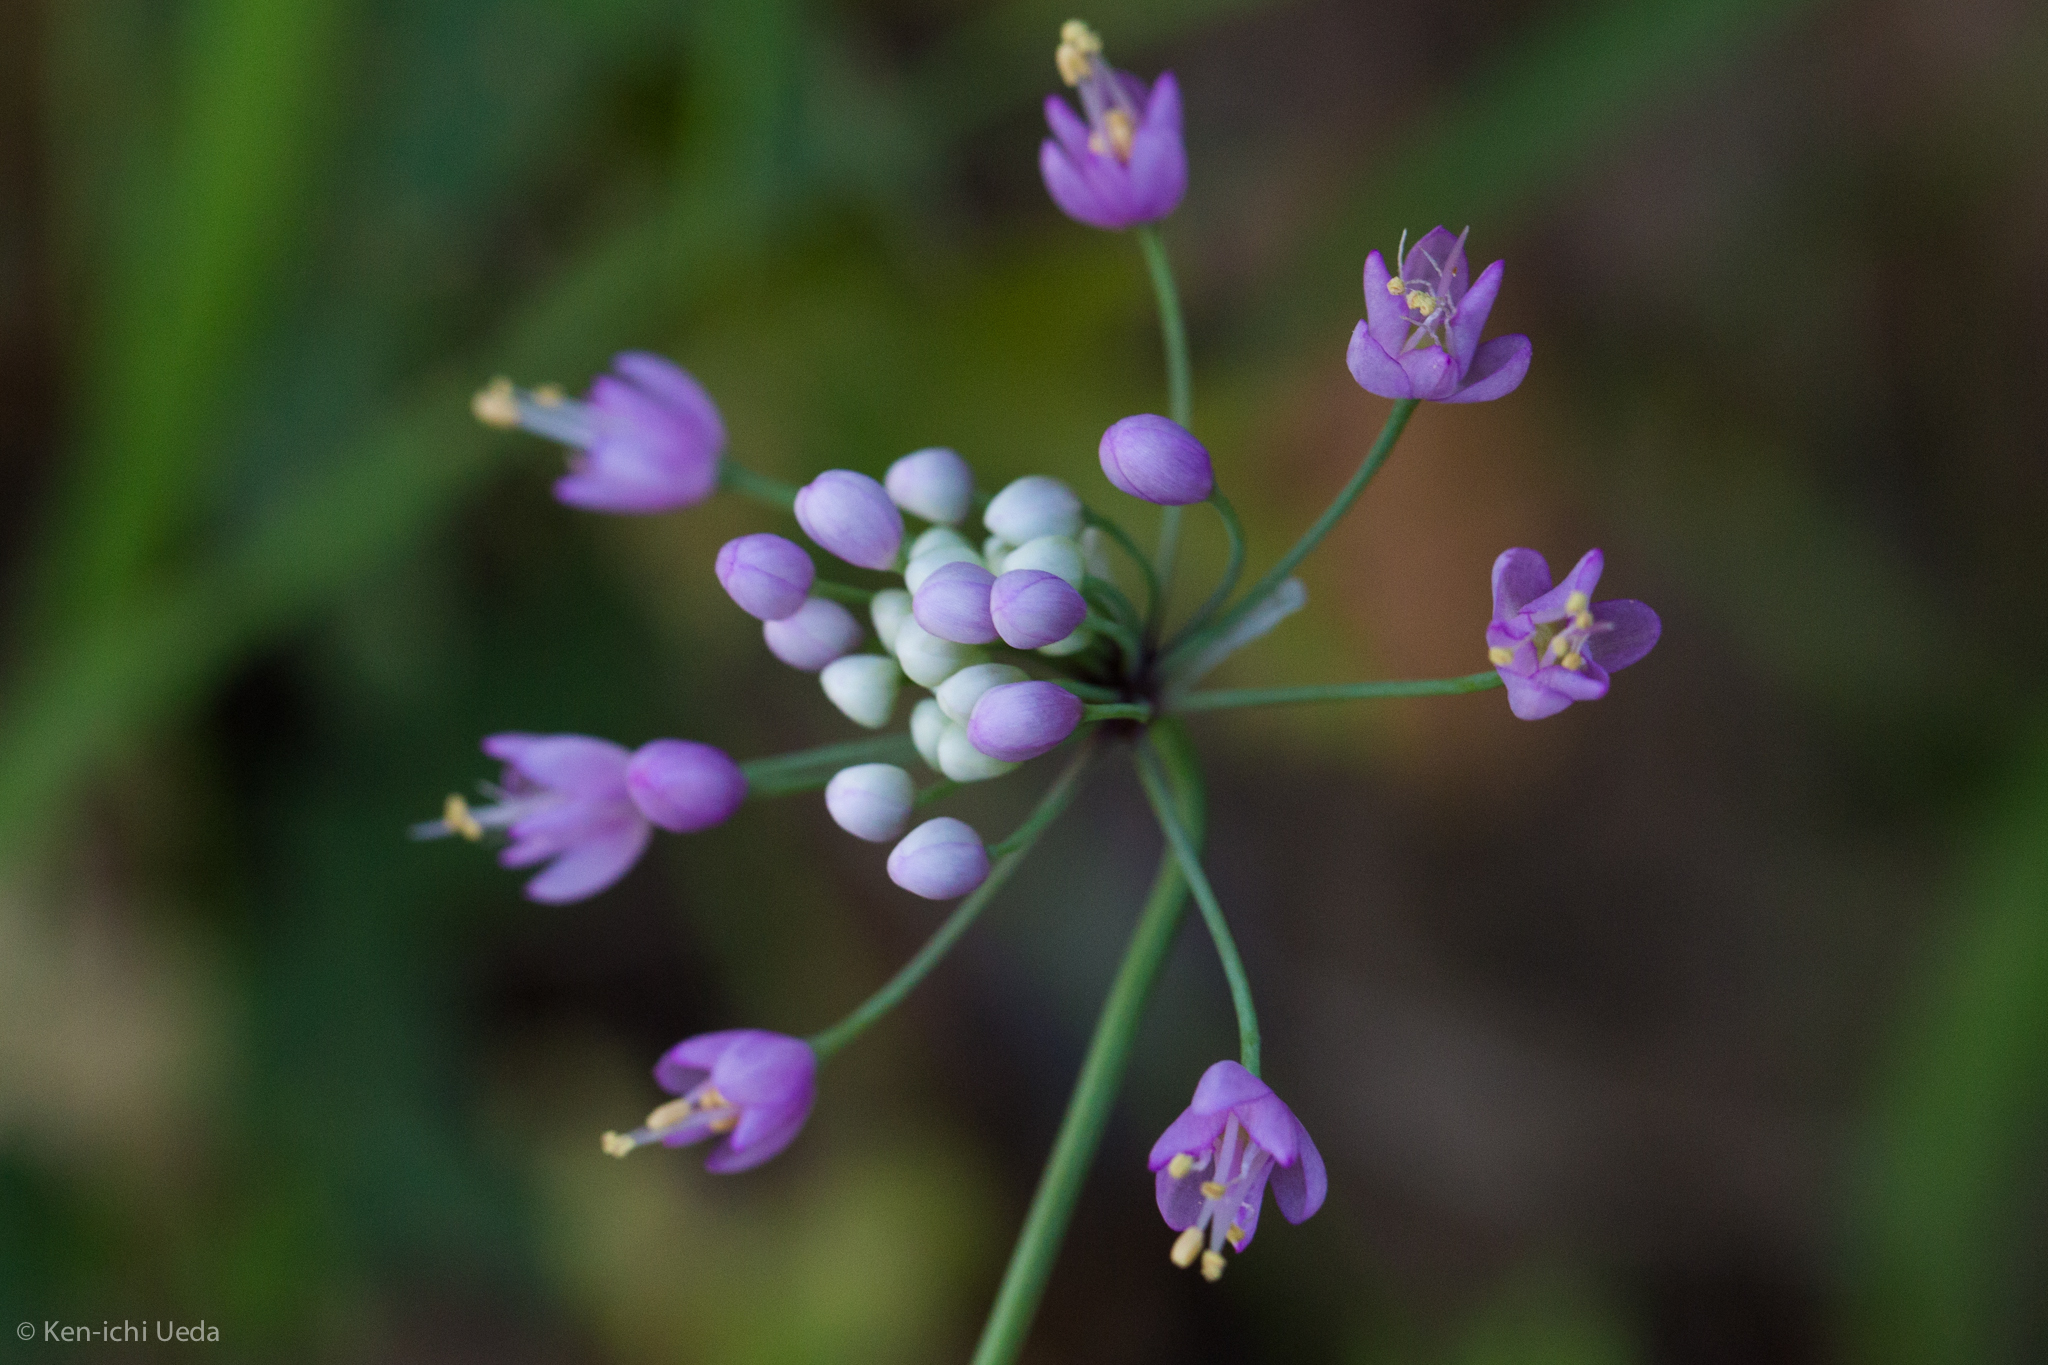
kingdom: Plantae
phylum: Tracheophyta
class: Liliopsida
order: Asparagales
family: Amaryllidaceae
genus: Allium
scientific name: Allium cernuum
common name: Nodding onion
